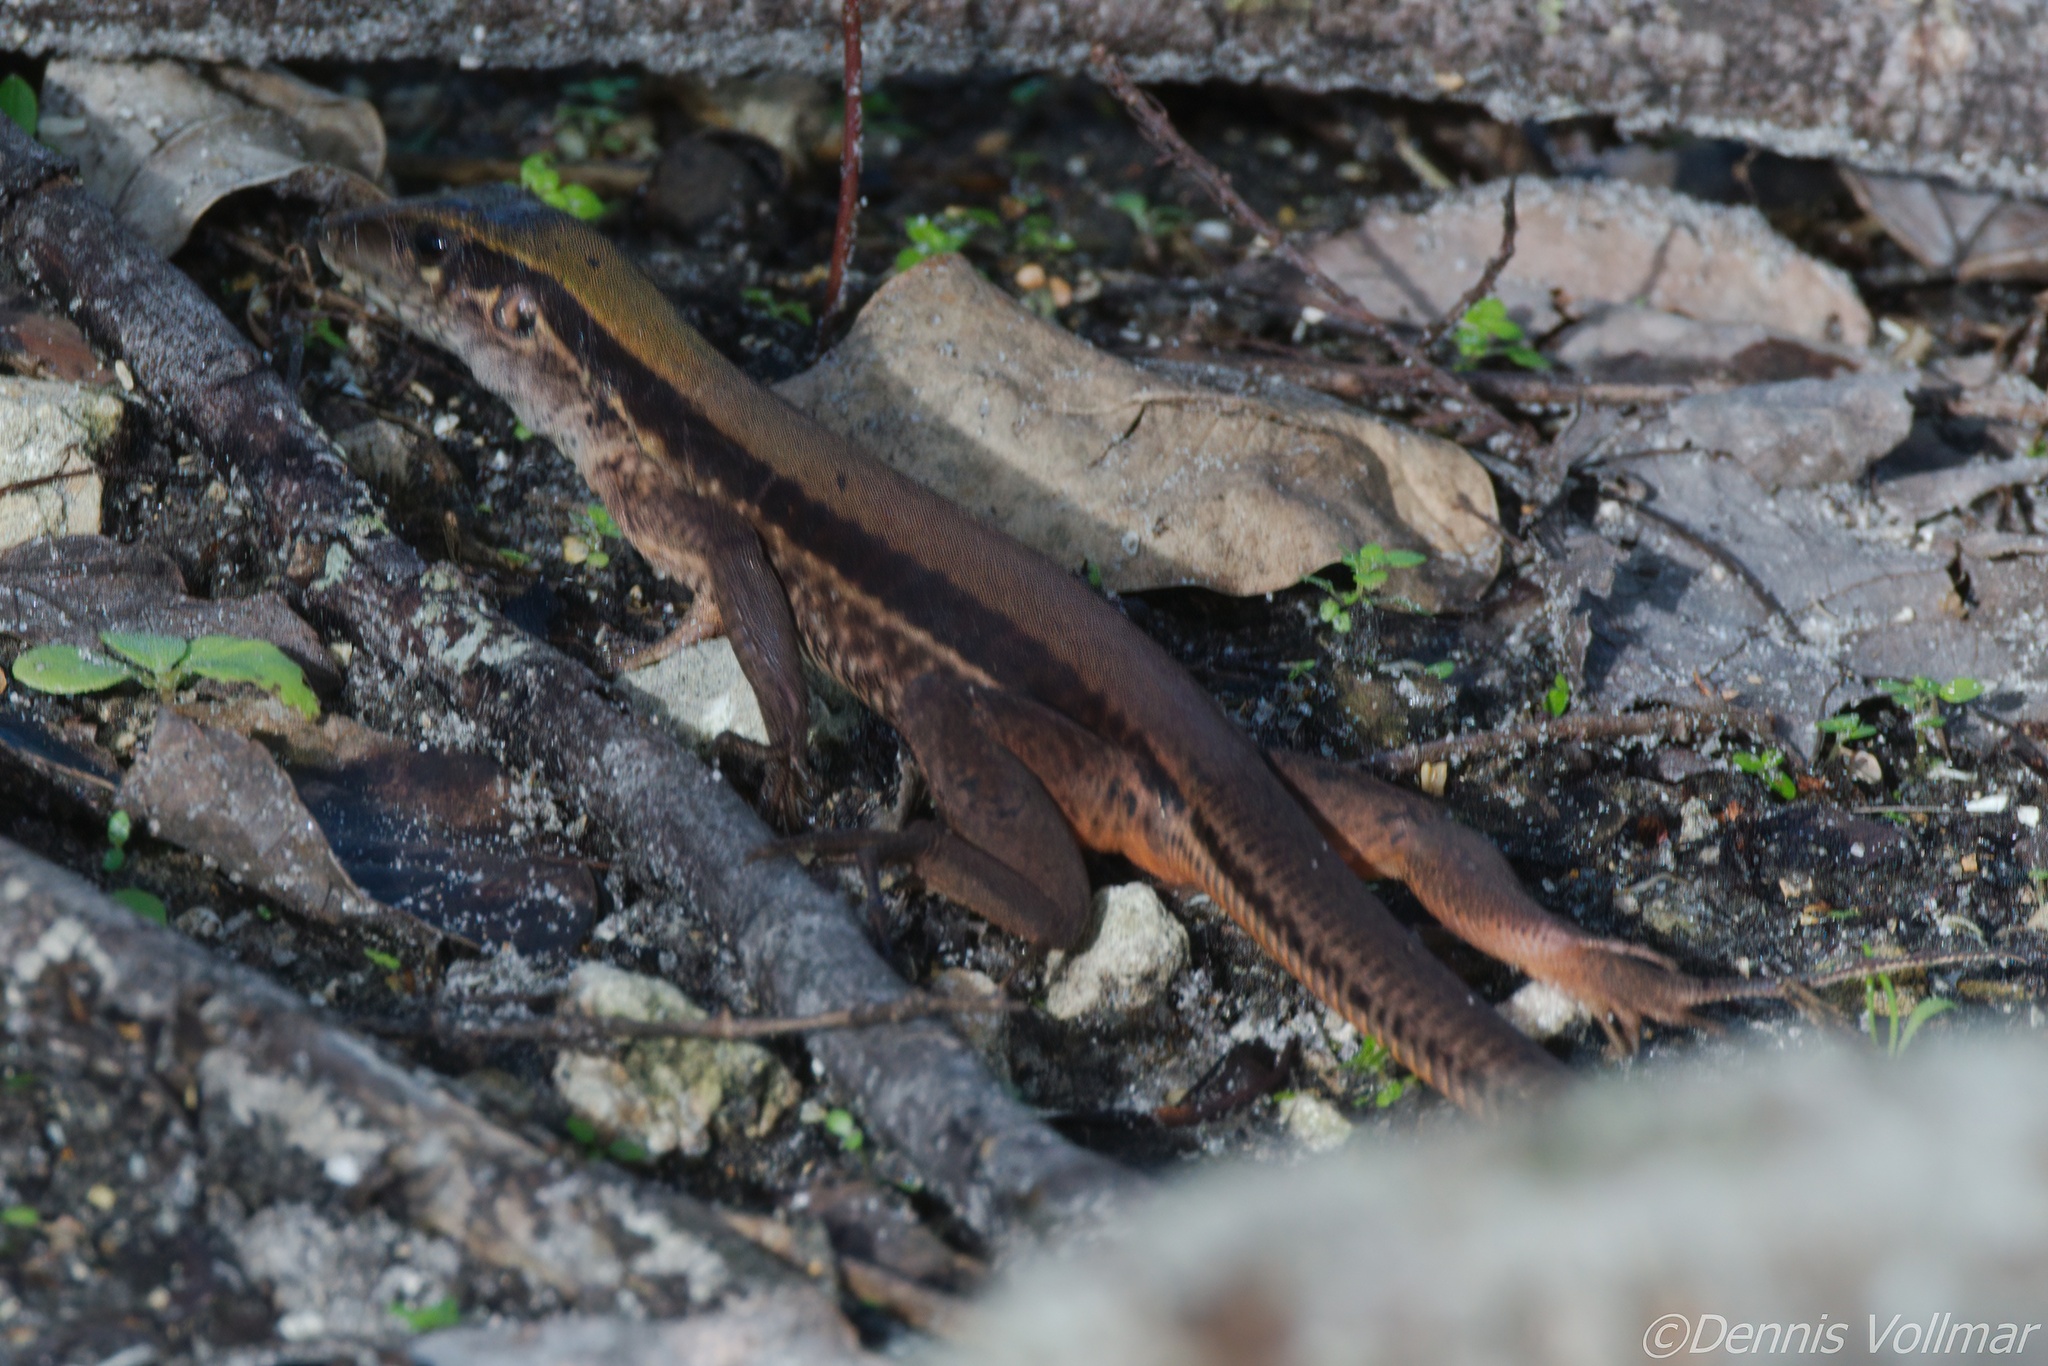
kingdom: Animalia
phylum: Chordata
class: Squamata
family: Teiidae
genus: Ameiva
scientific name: Ameiva ameiva
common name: Giant ameiva
